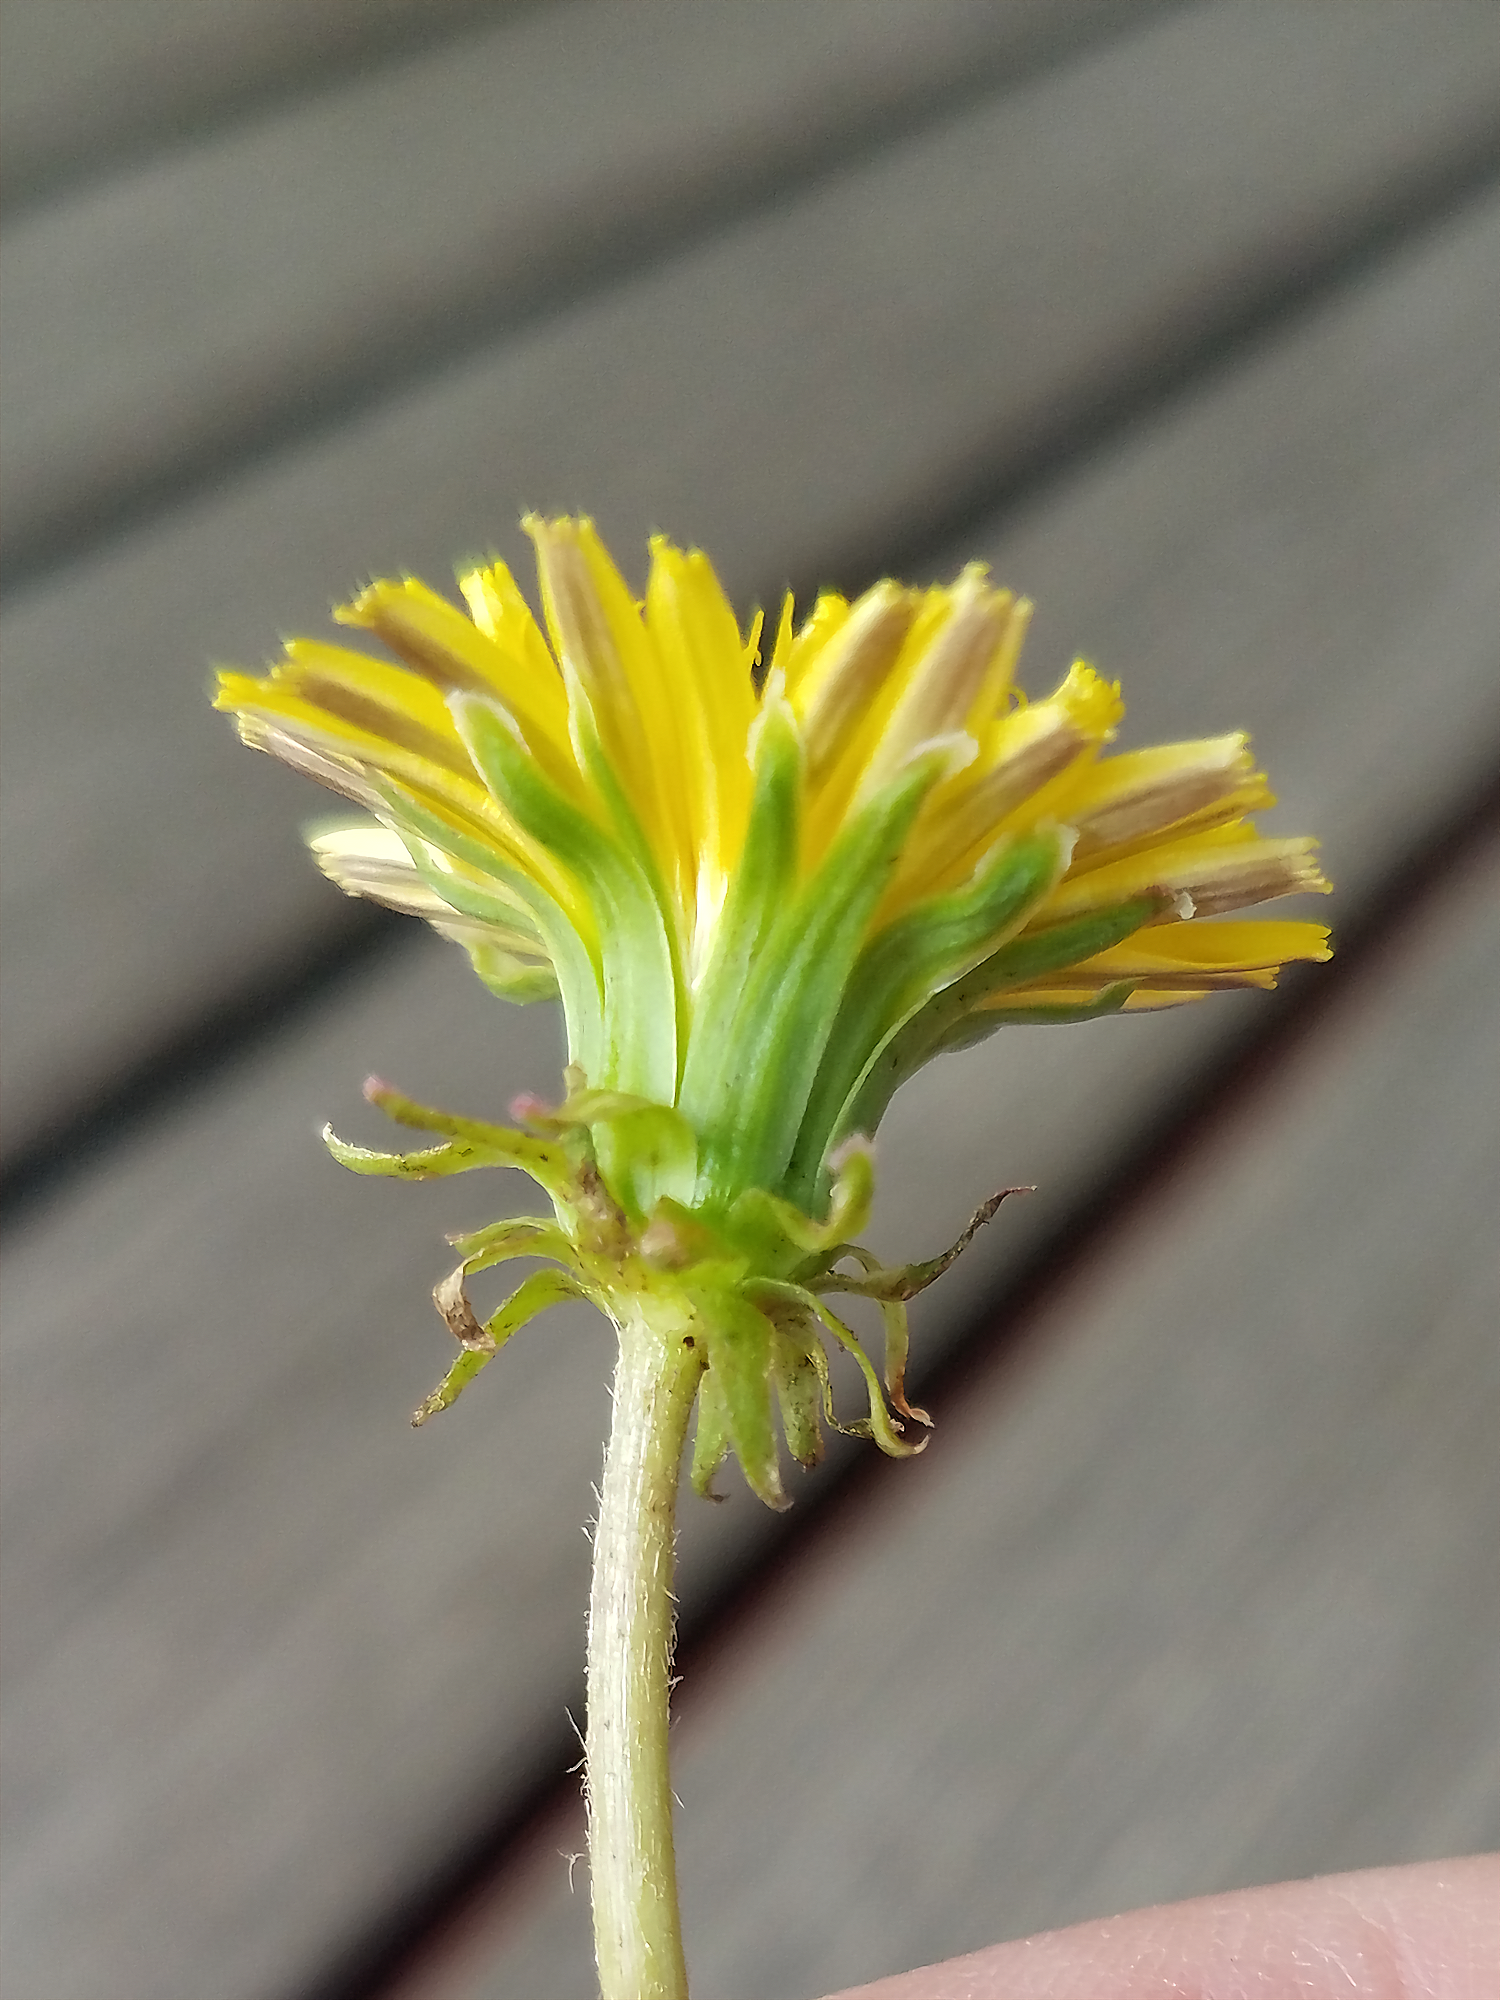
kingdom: Plantae
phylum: Tracheophyta
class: Magnoliopsida
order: Asterales
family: Asteraceae
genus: Taraxacum
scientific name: Taraxacum officinale
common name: Common dandelion
